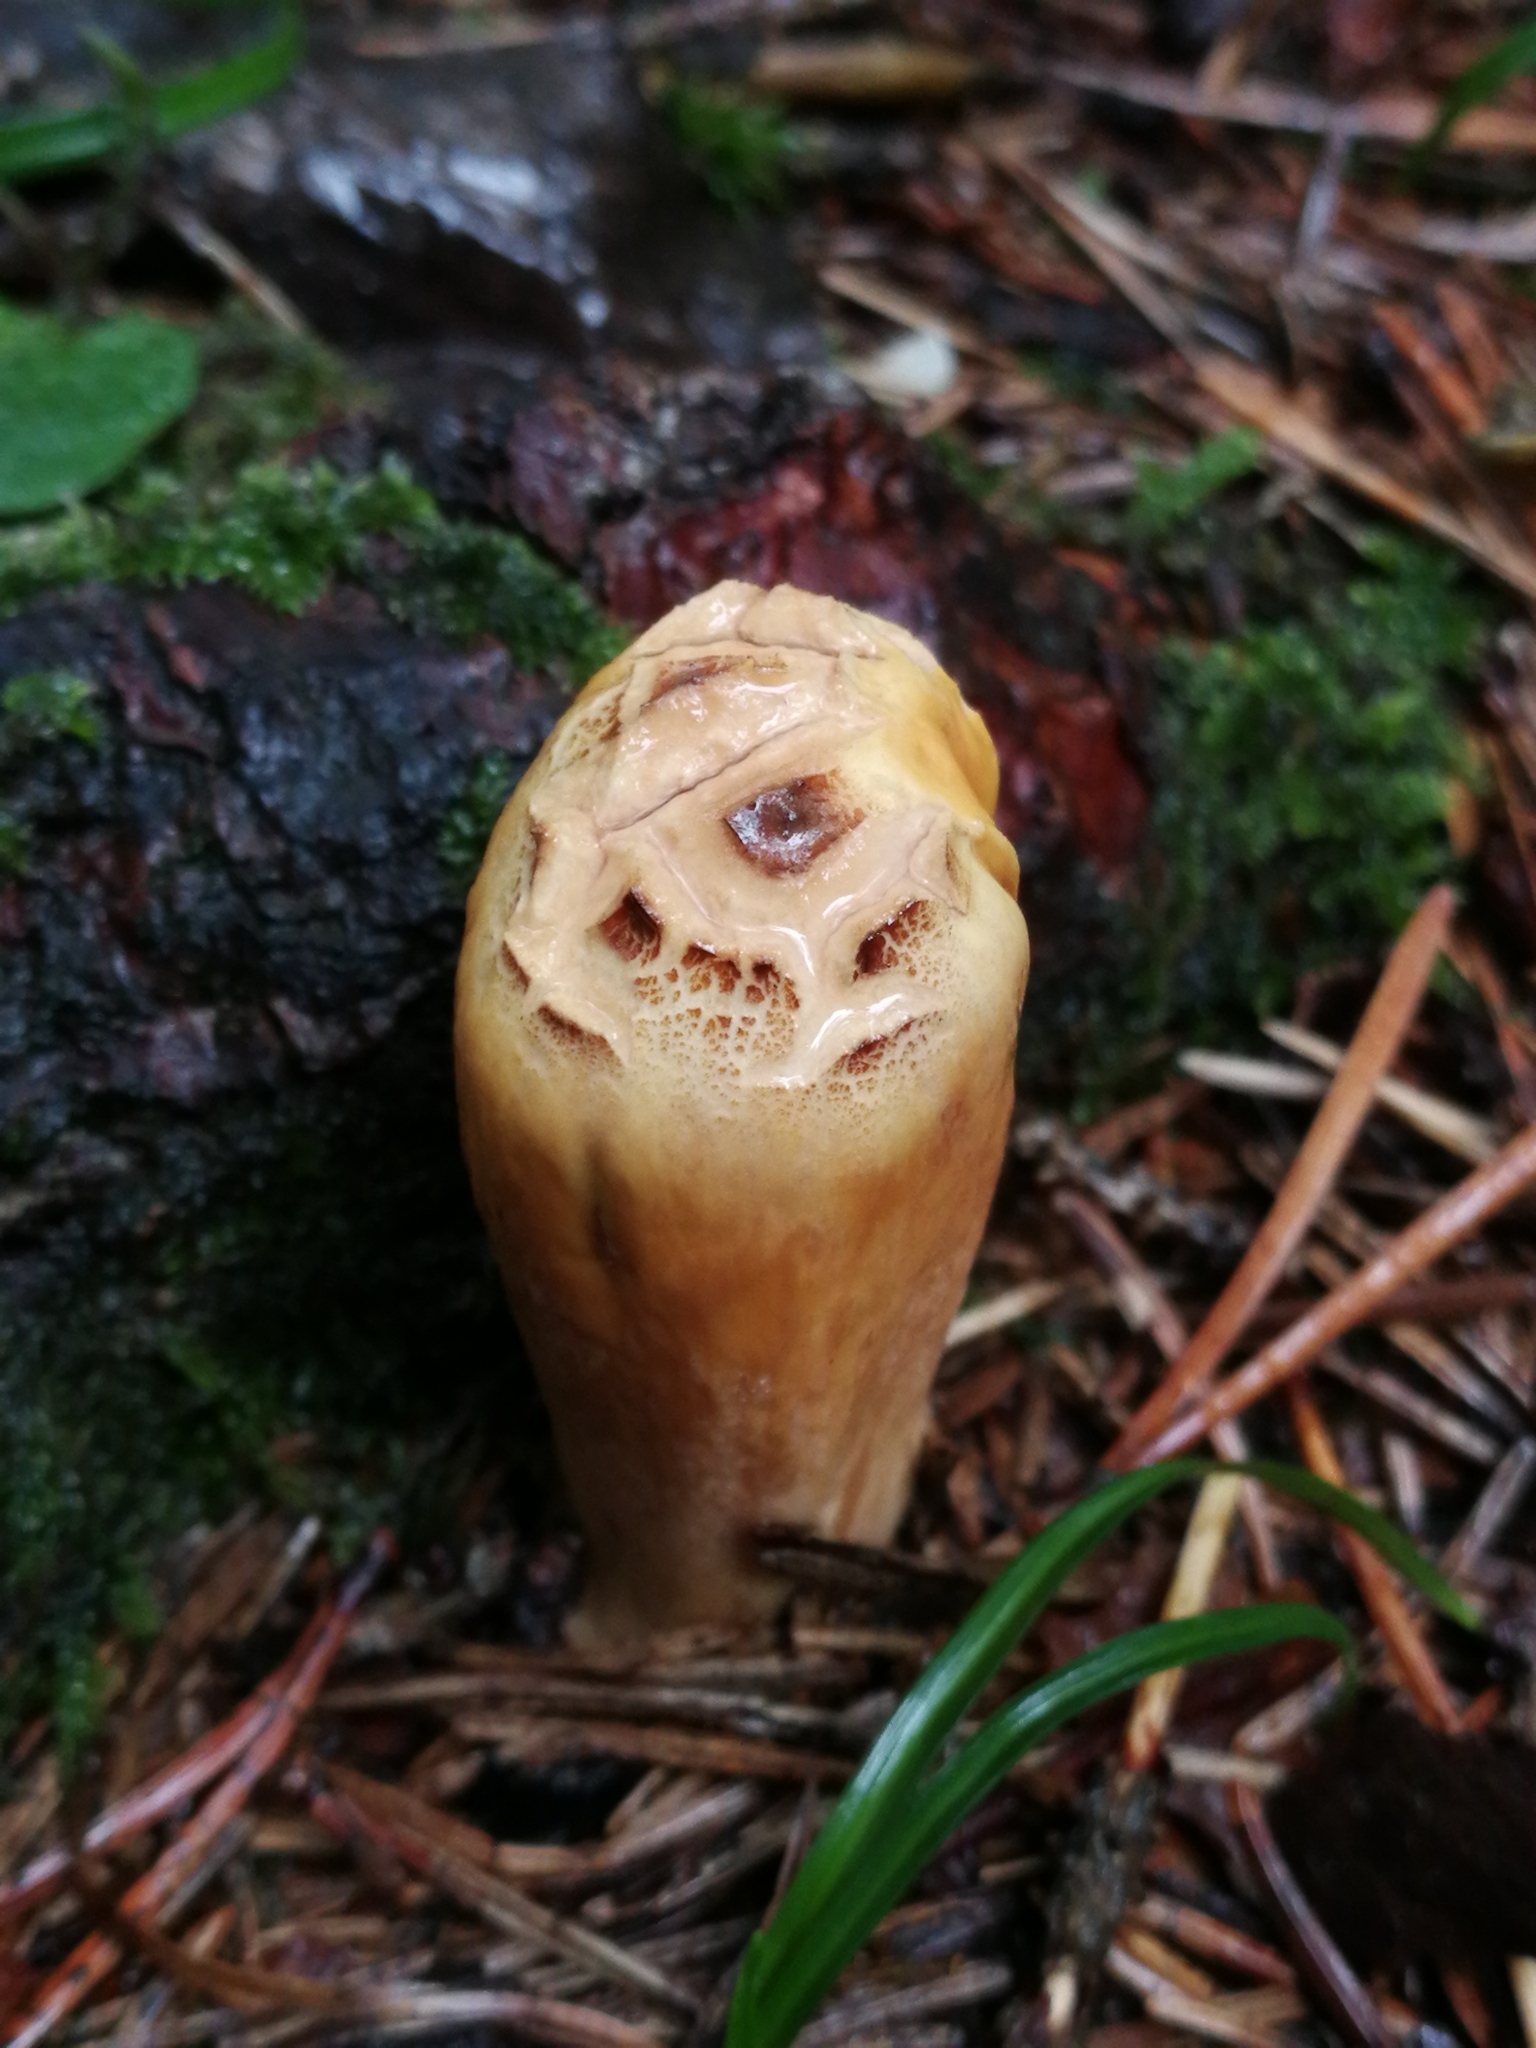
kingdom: Fungi
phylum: Basidiomycota
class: Agaricomycetes
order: Gomphales
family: Clavariadelphaceae
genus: Clavariadelphus
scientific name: Clavariadelphus pistillaris
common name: Giant club
